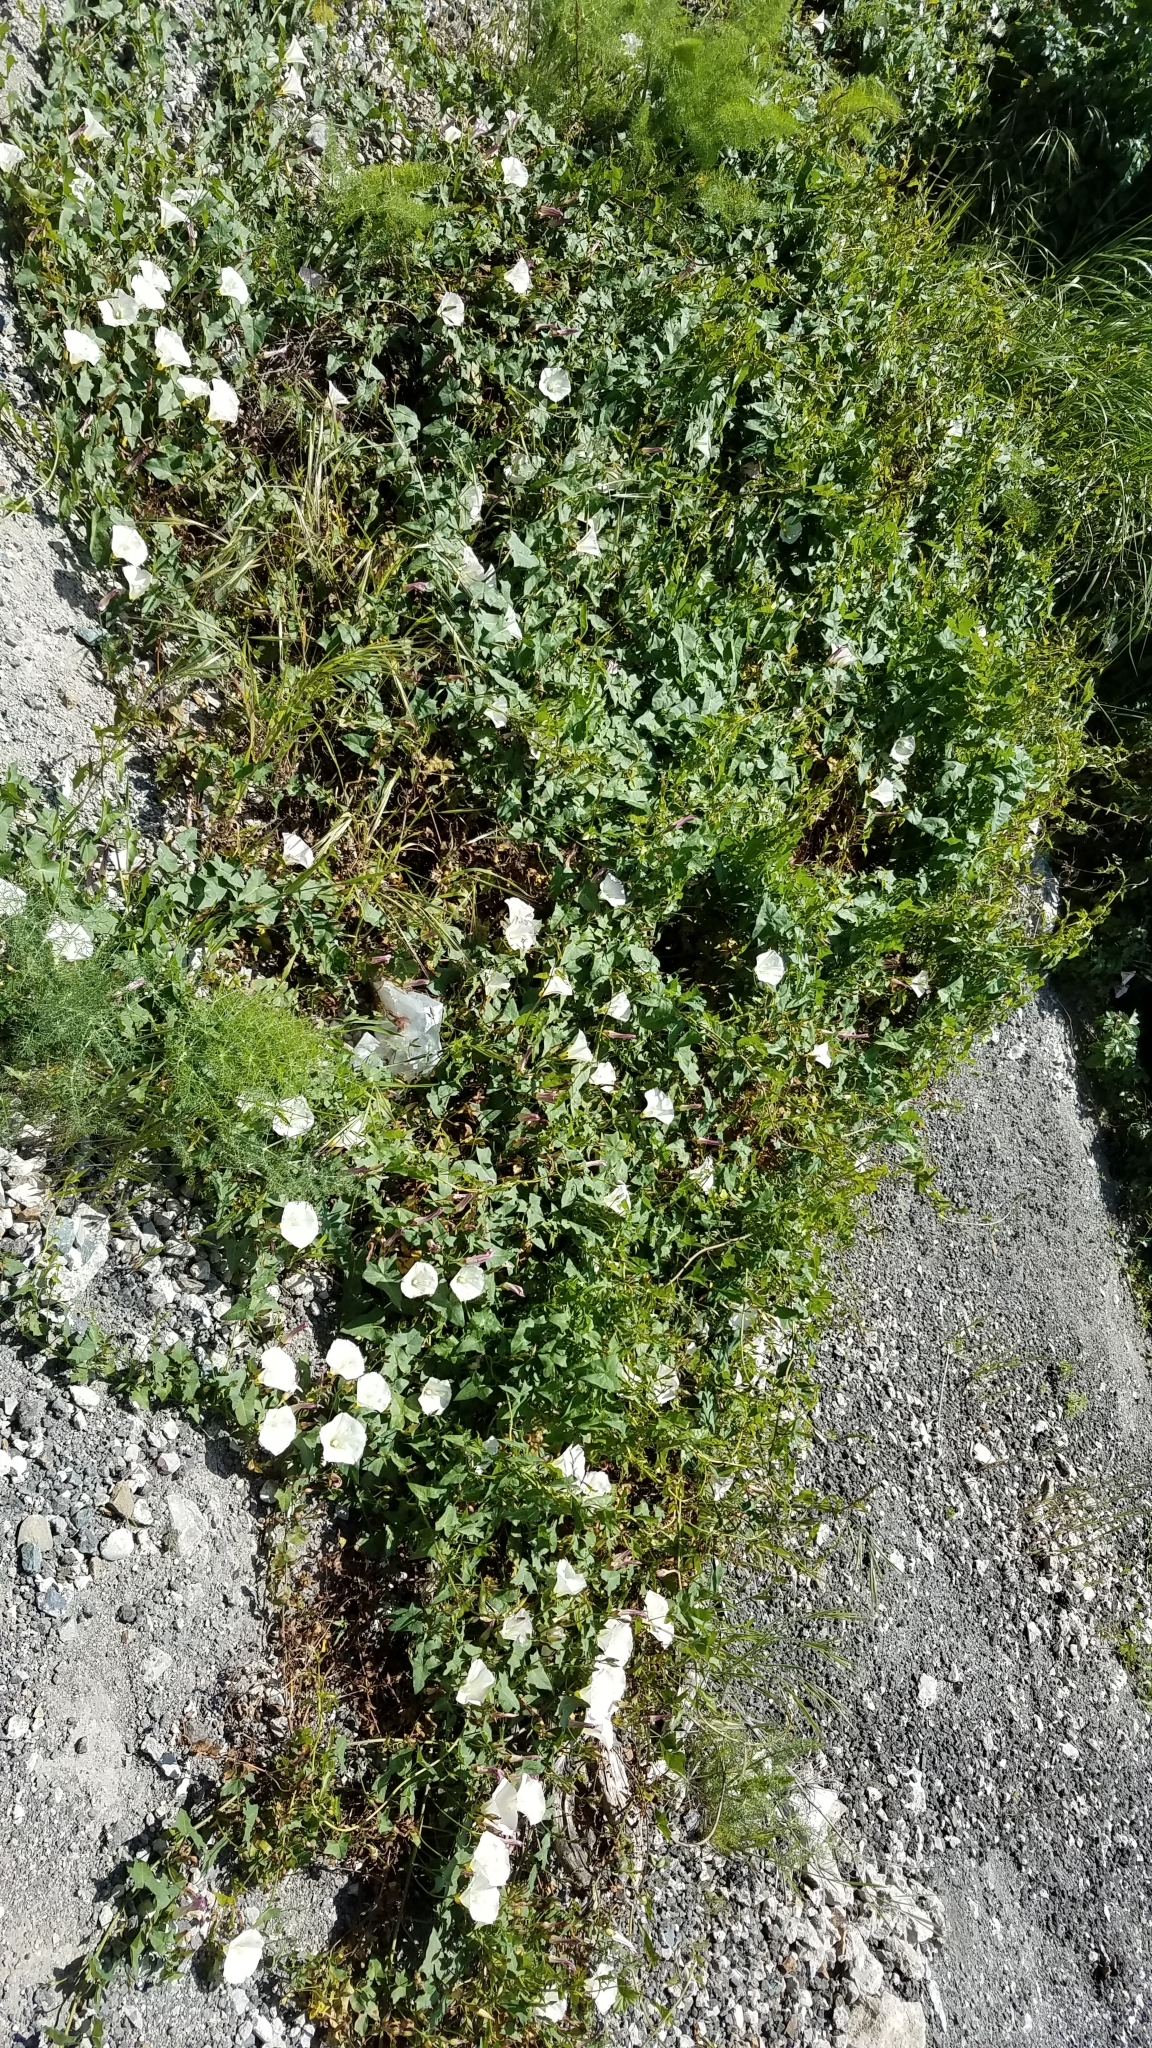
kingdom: Plantae
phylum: Tracheophyta
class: Magnoliopsida
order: Solanales
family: Convolvulaceae
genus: Calystegia
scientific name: Calystegia purpurata
